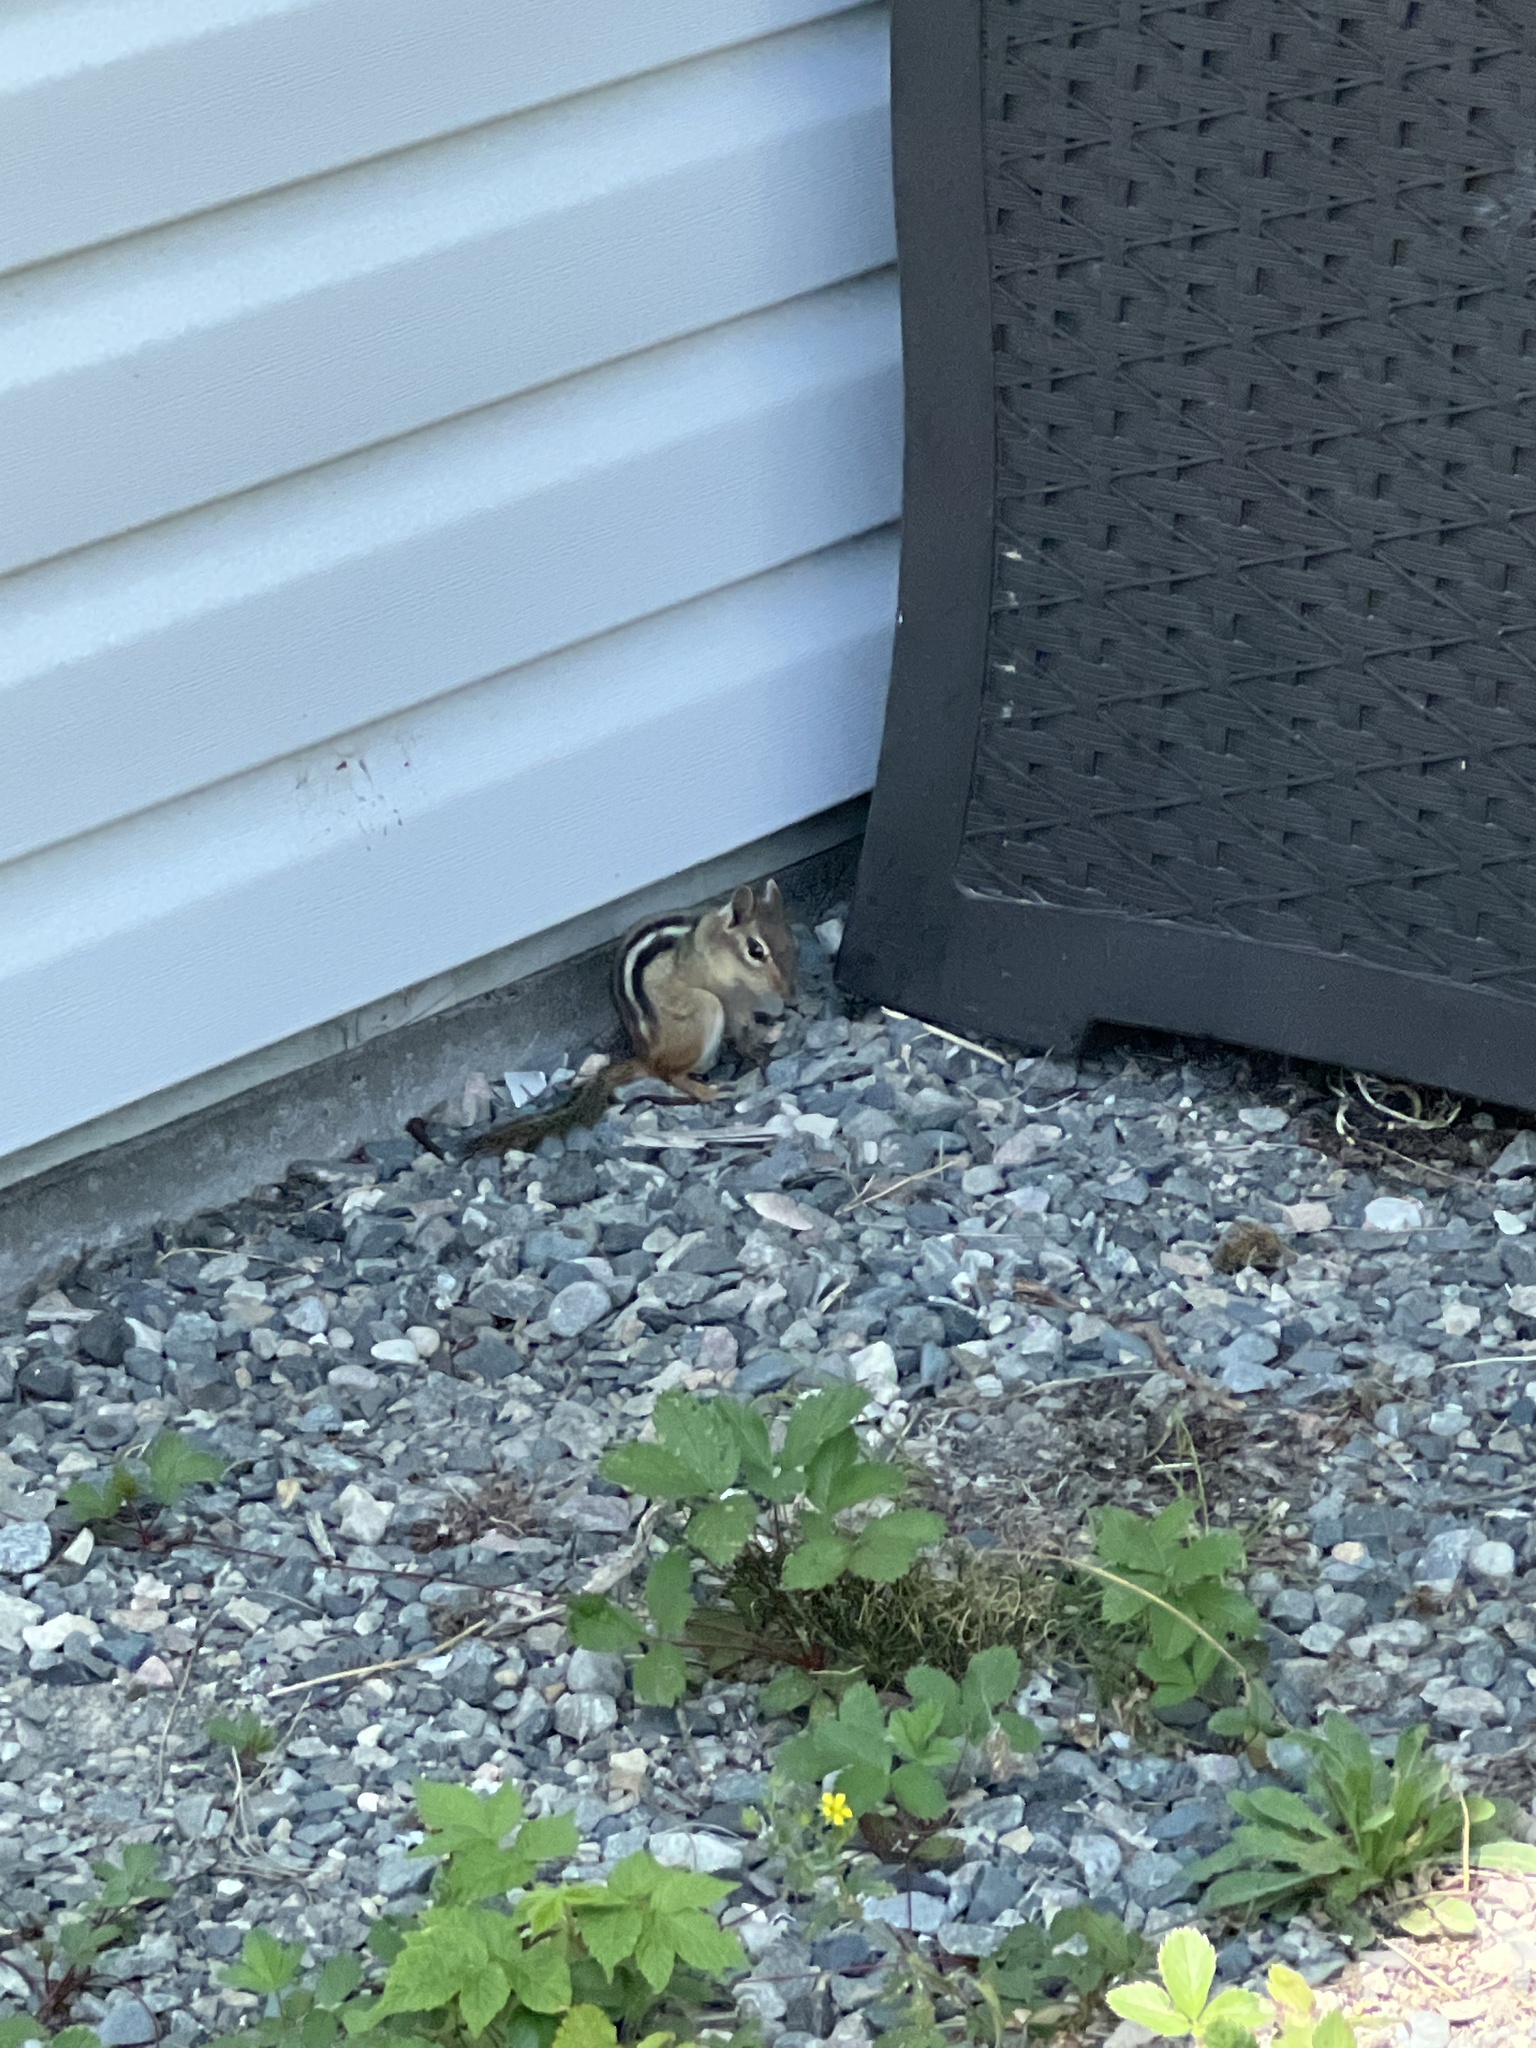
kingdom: Animalia
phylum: Chordata
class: Mammalia
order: Rodentia
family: Sciuridae
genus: Tamias
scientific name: Tamias striatus
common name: Eastern chipmunk
